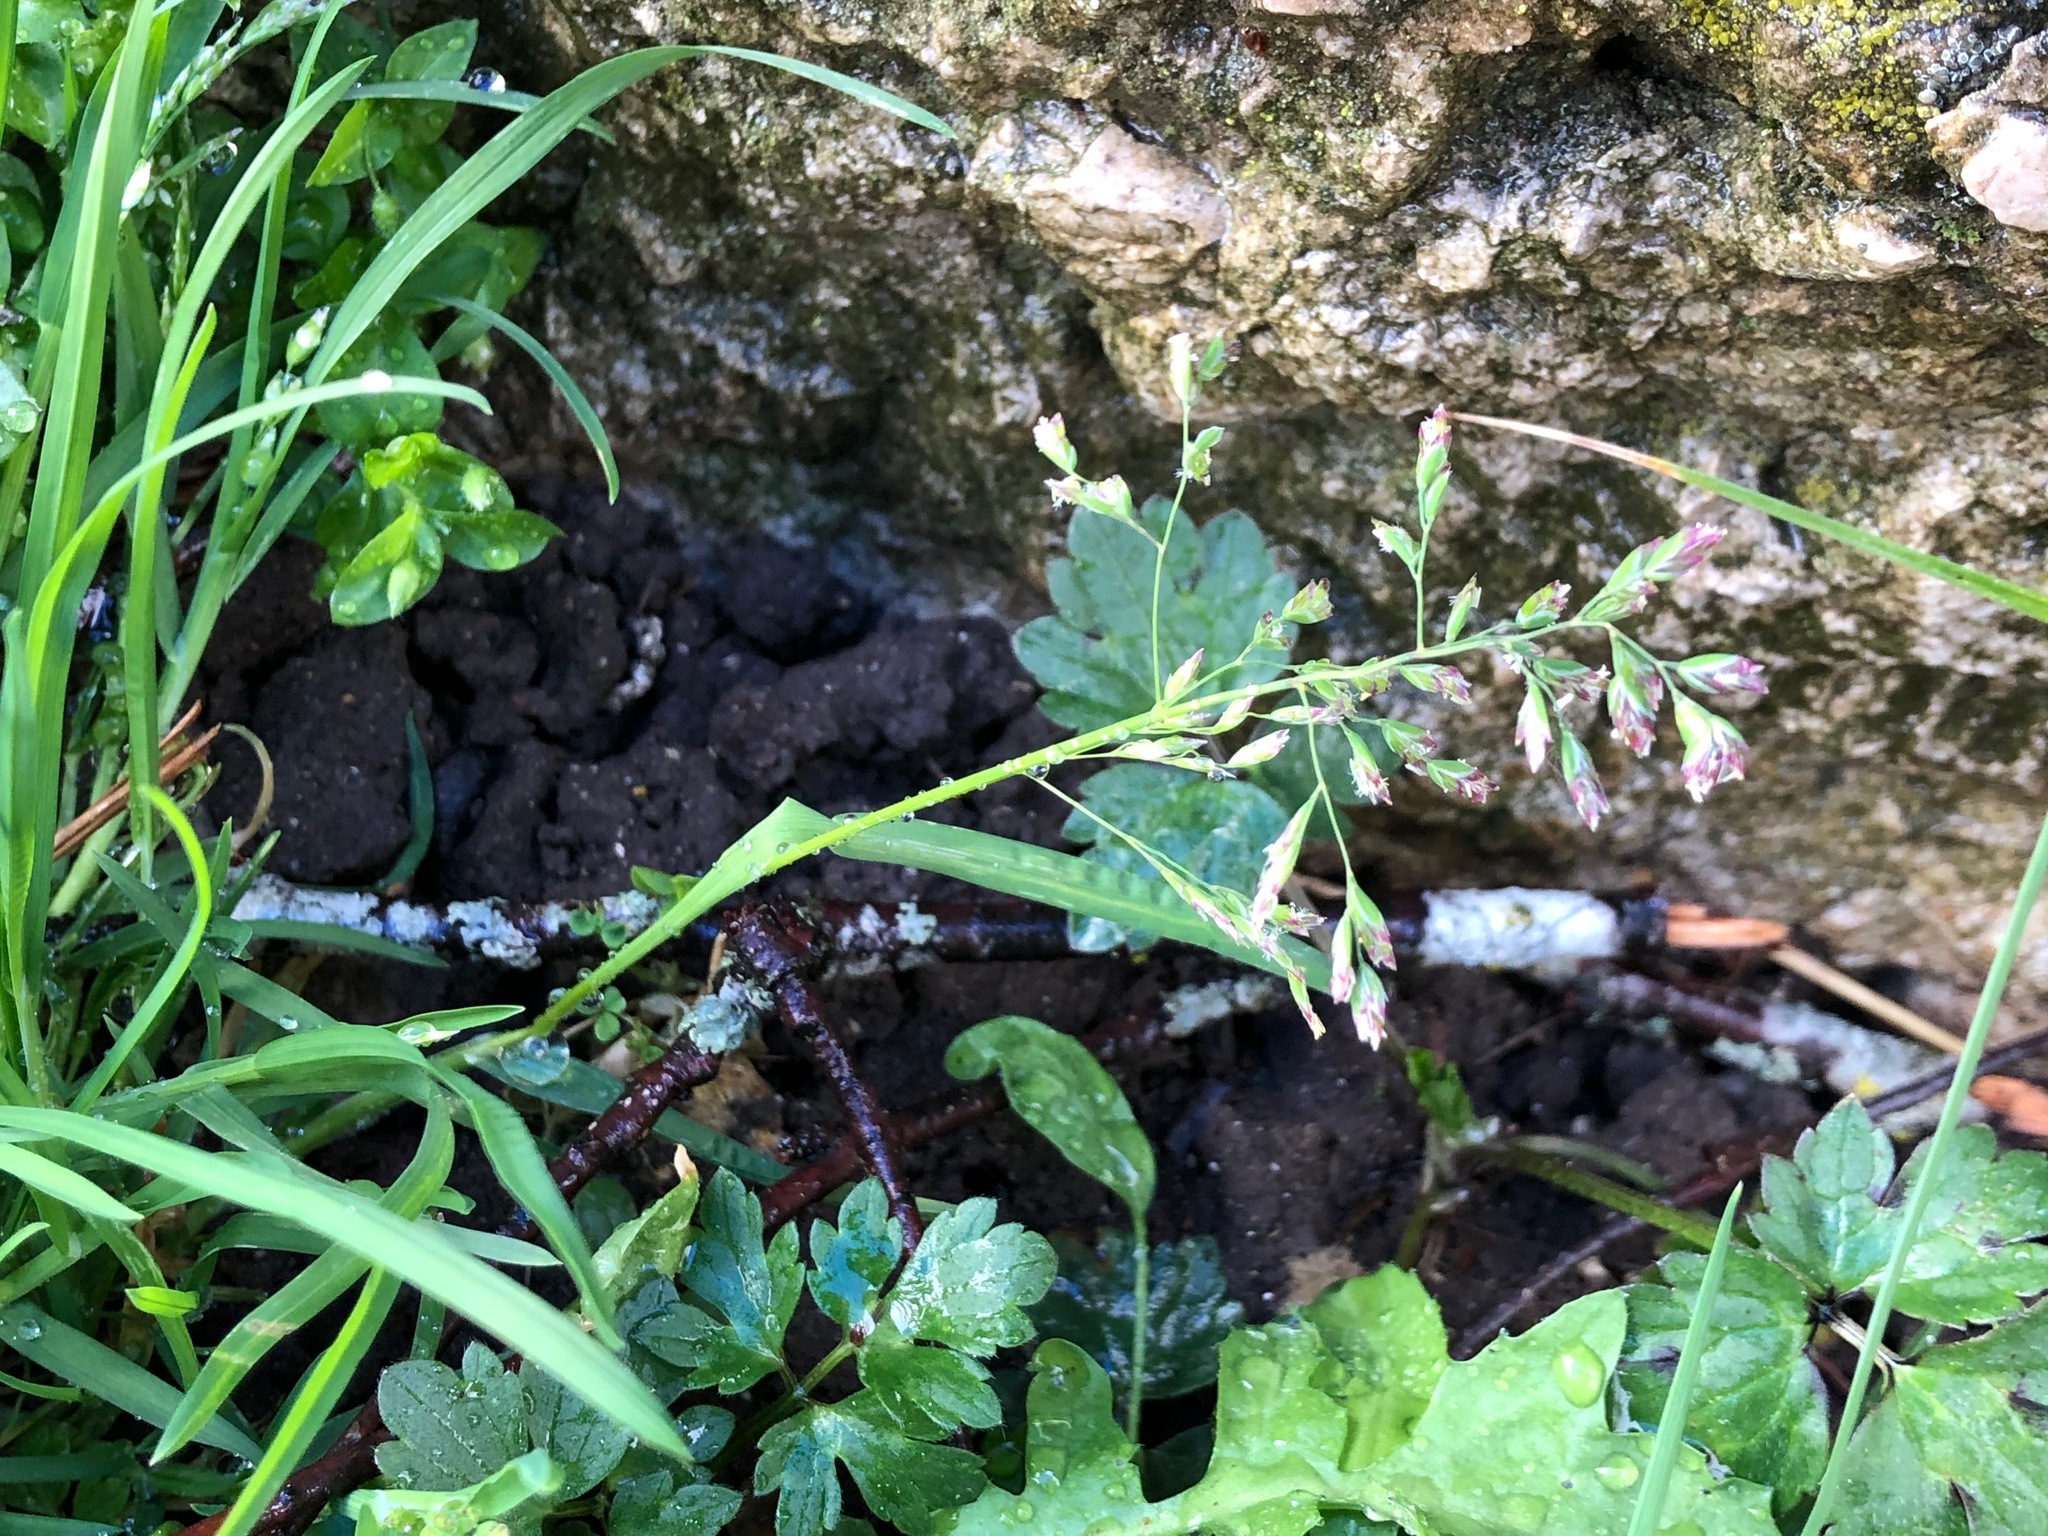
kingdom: Plantae
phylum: Tracheophyta
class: Liliopsida
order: Poales
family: Poaceae
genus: Poa
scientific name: Poa annua
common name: Annual bluegrass
